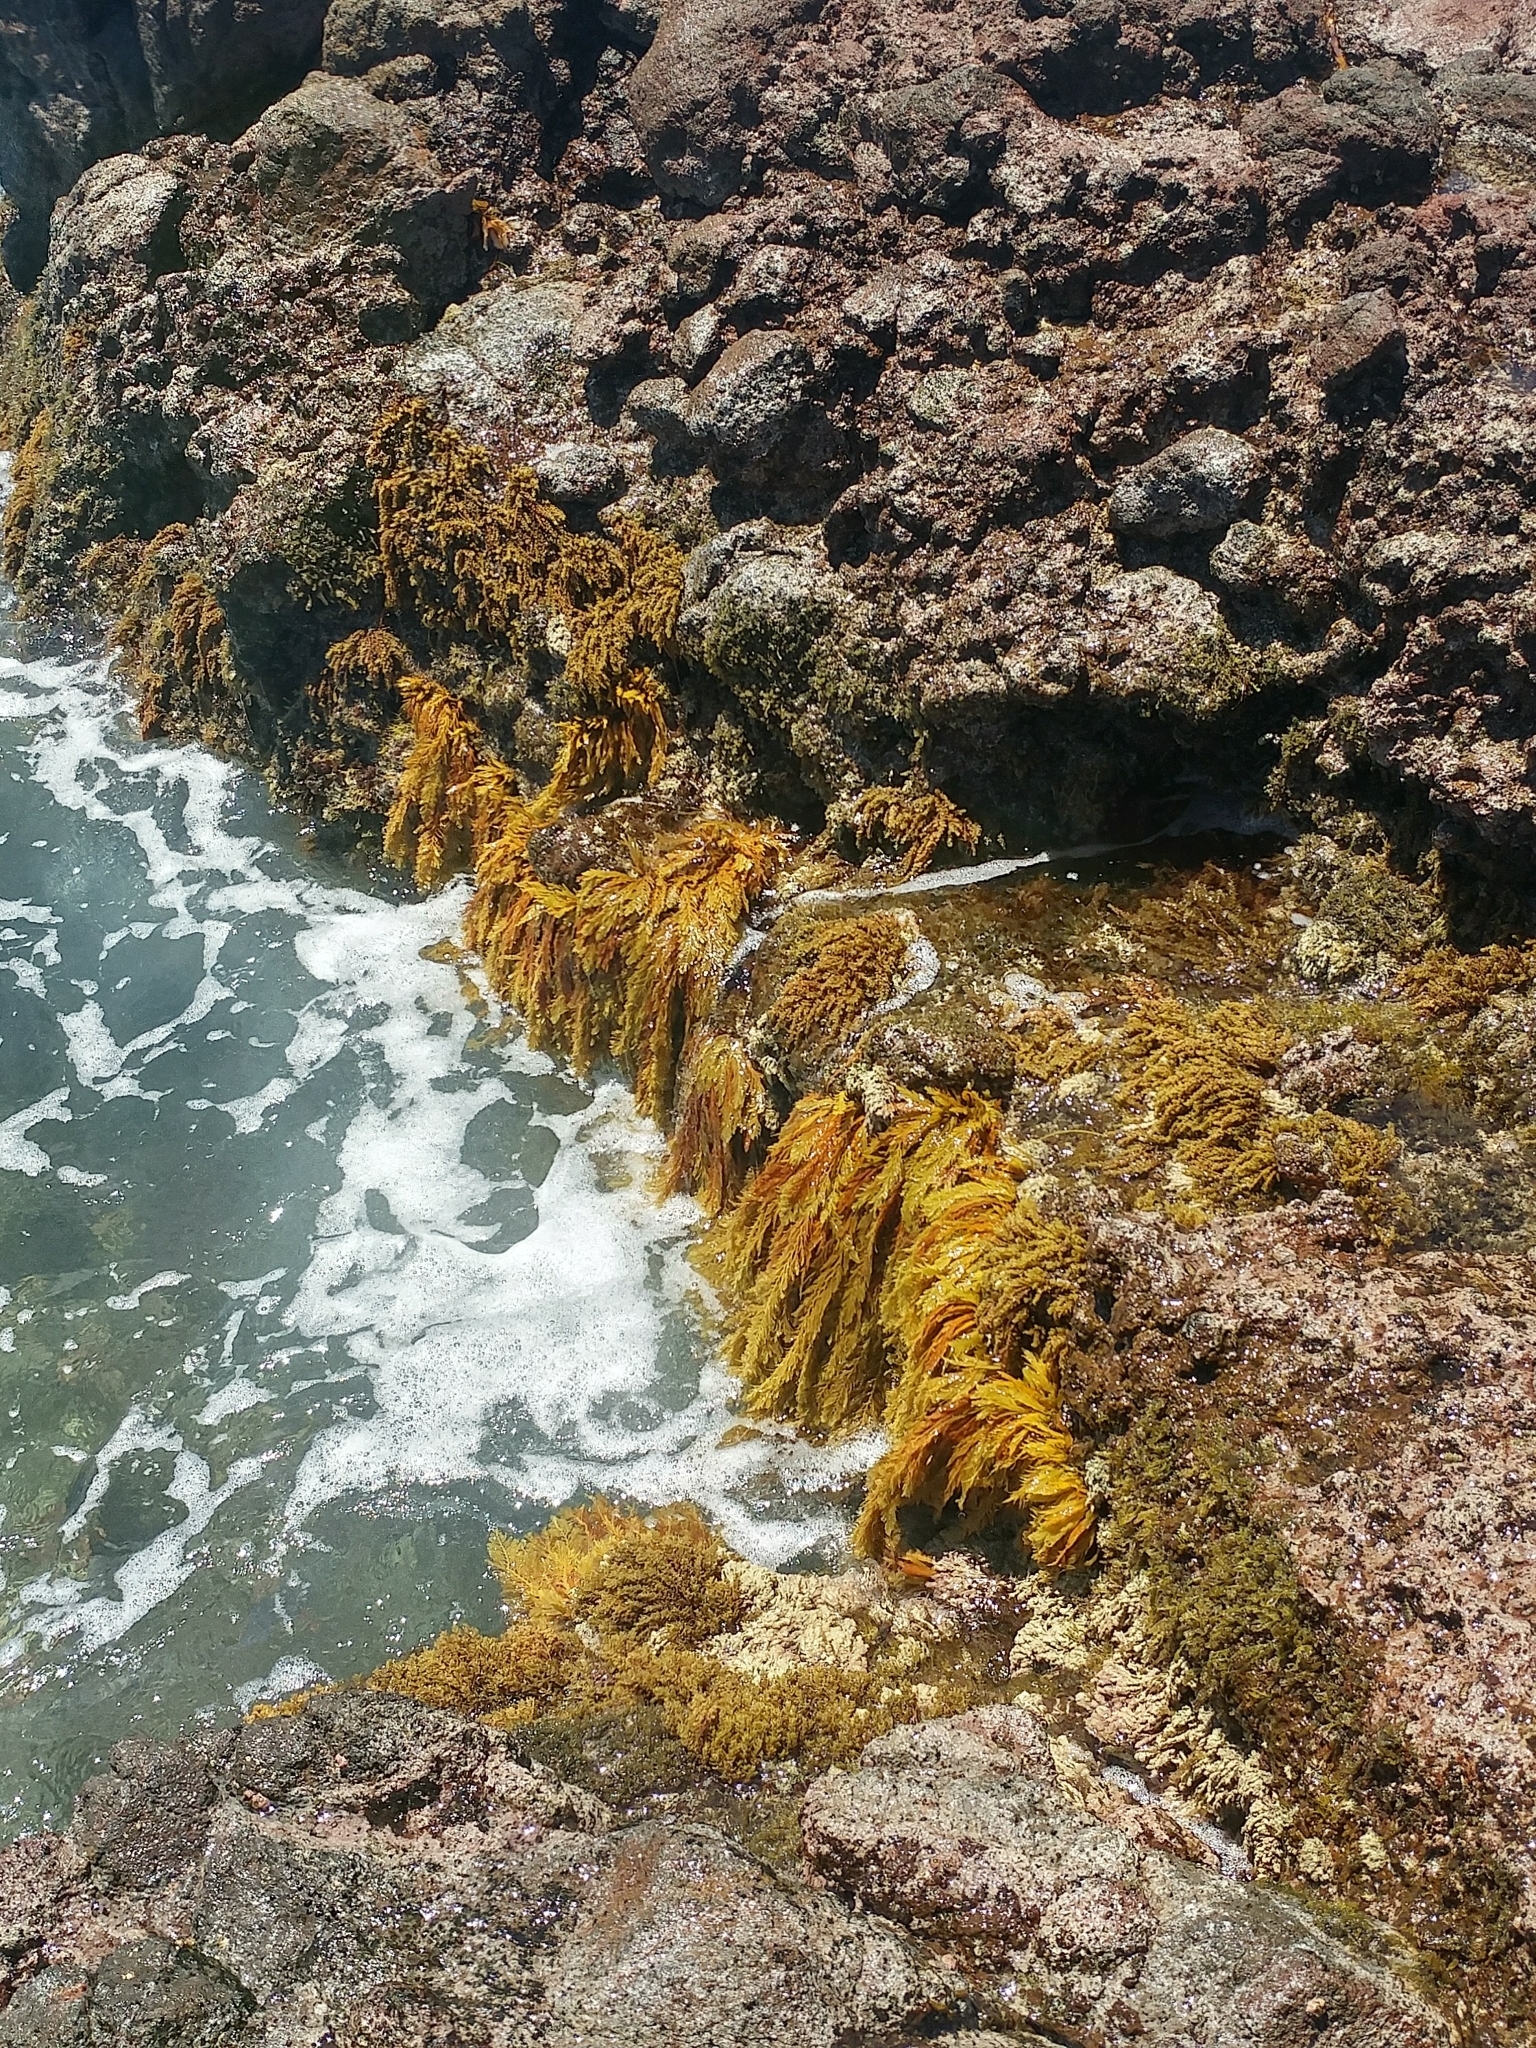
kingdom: Chromista
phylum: Ochrophyta
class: Phaeophyceae
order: Fucales
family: Sargassaceae
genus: Stephanocystis
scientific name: Stephanocystis
